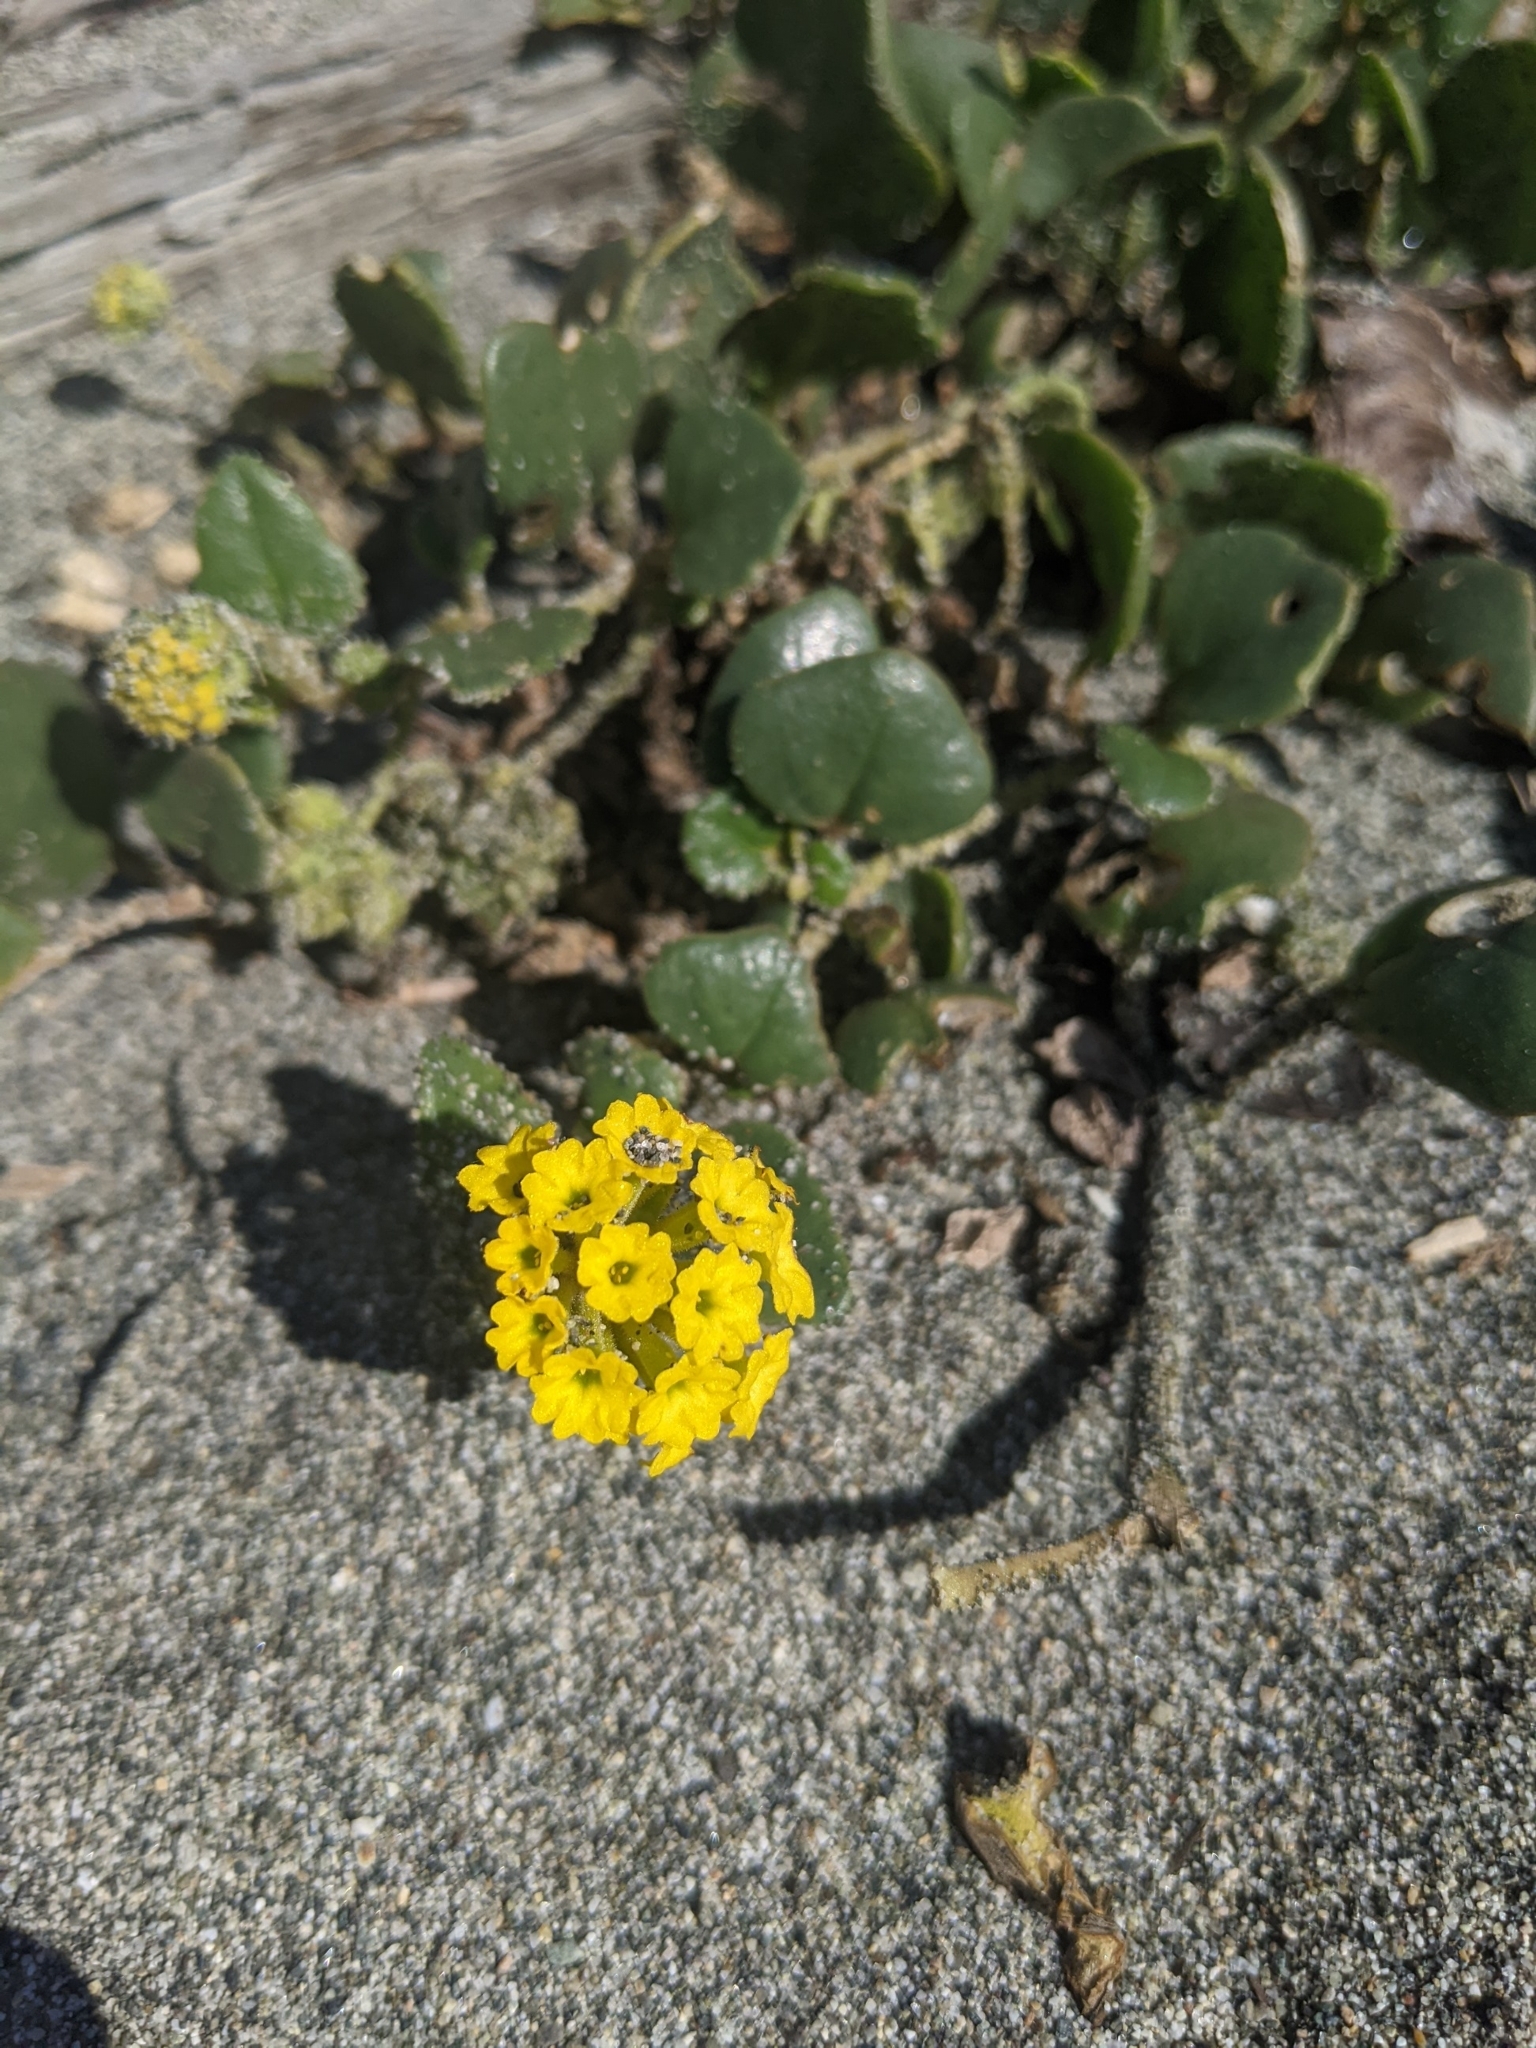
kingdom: Plantae
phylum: Tracheophyta
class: Magnoliopsida
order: Caryophyllales
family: Nyctaginaceae
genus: Abronia
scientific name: Abronia latifolia
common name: Yellow sand-verbena
